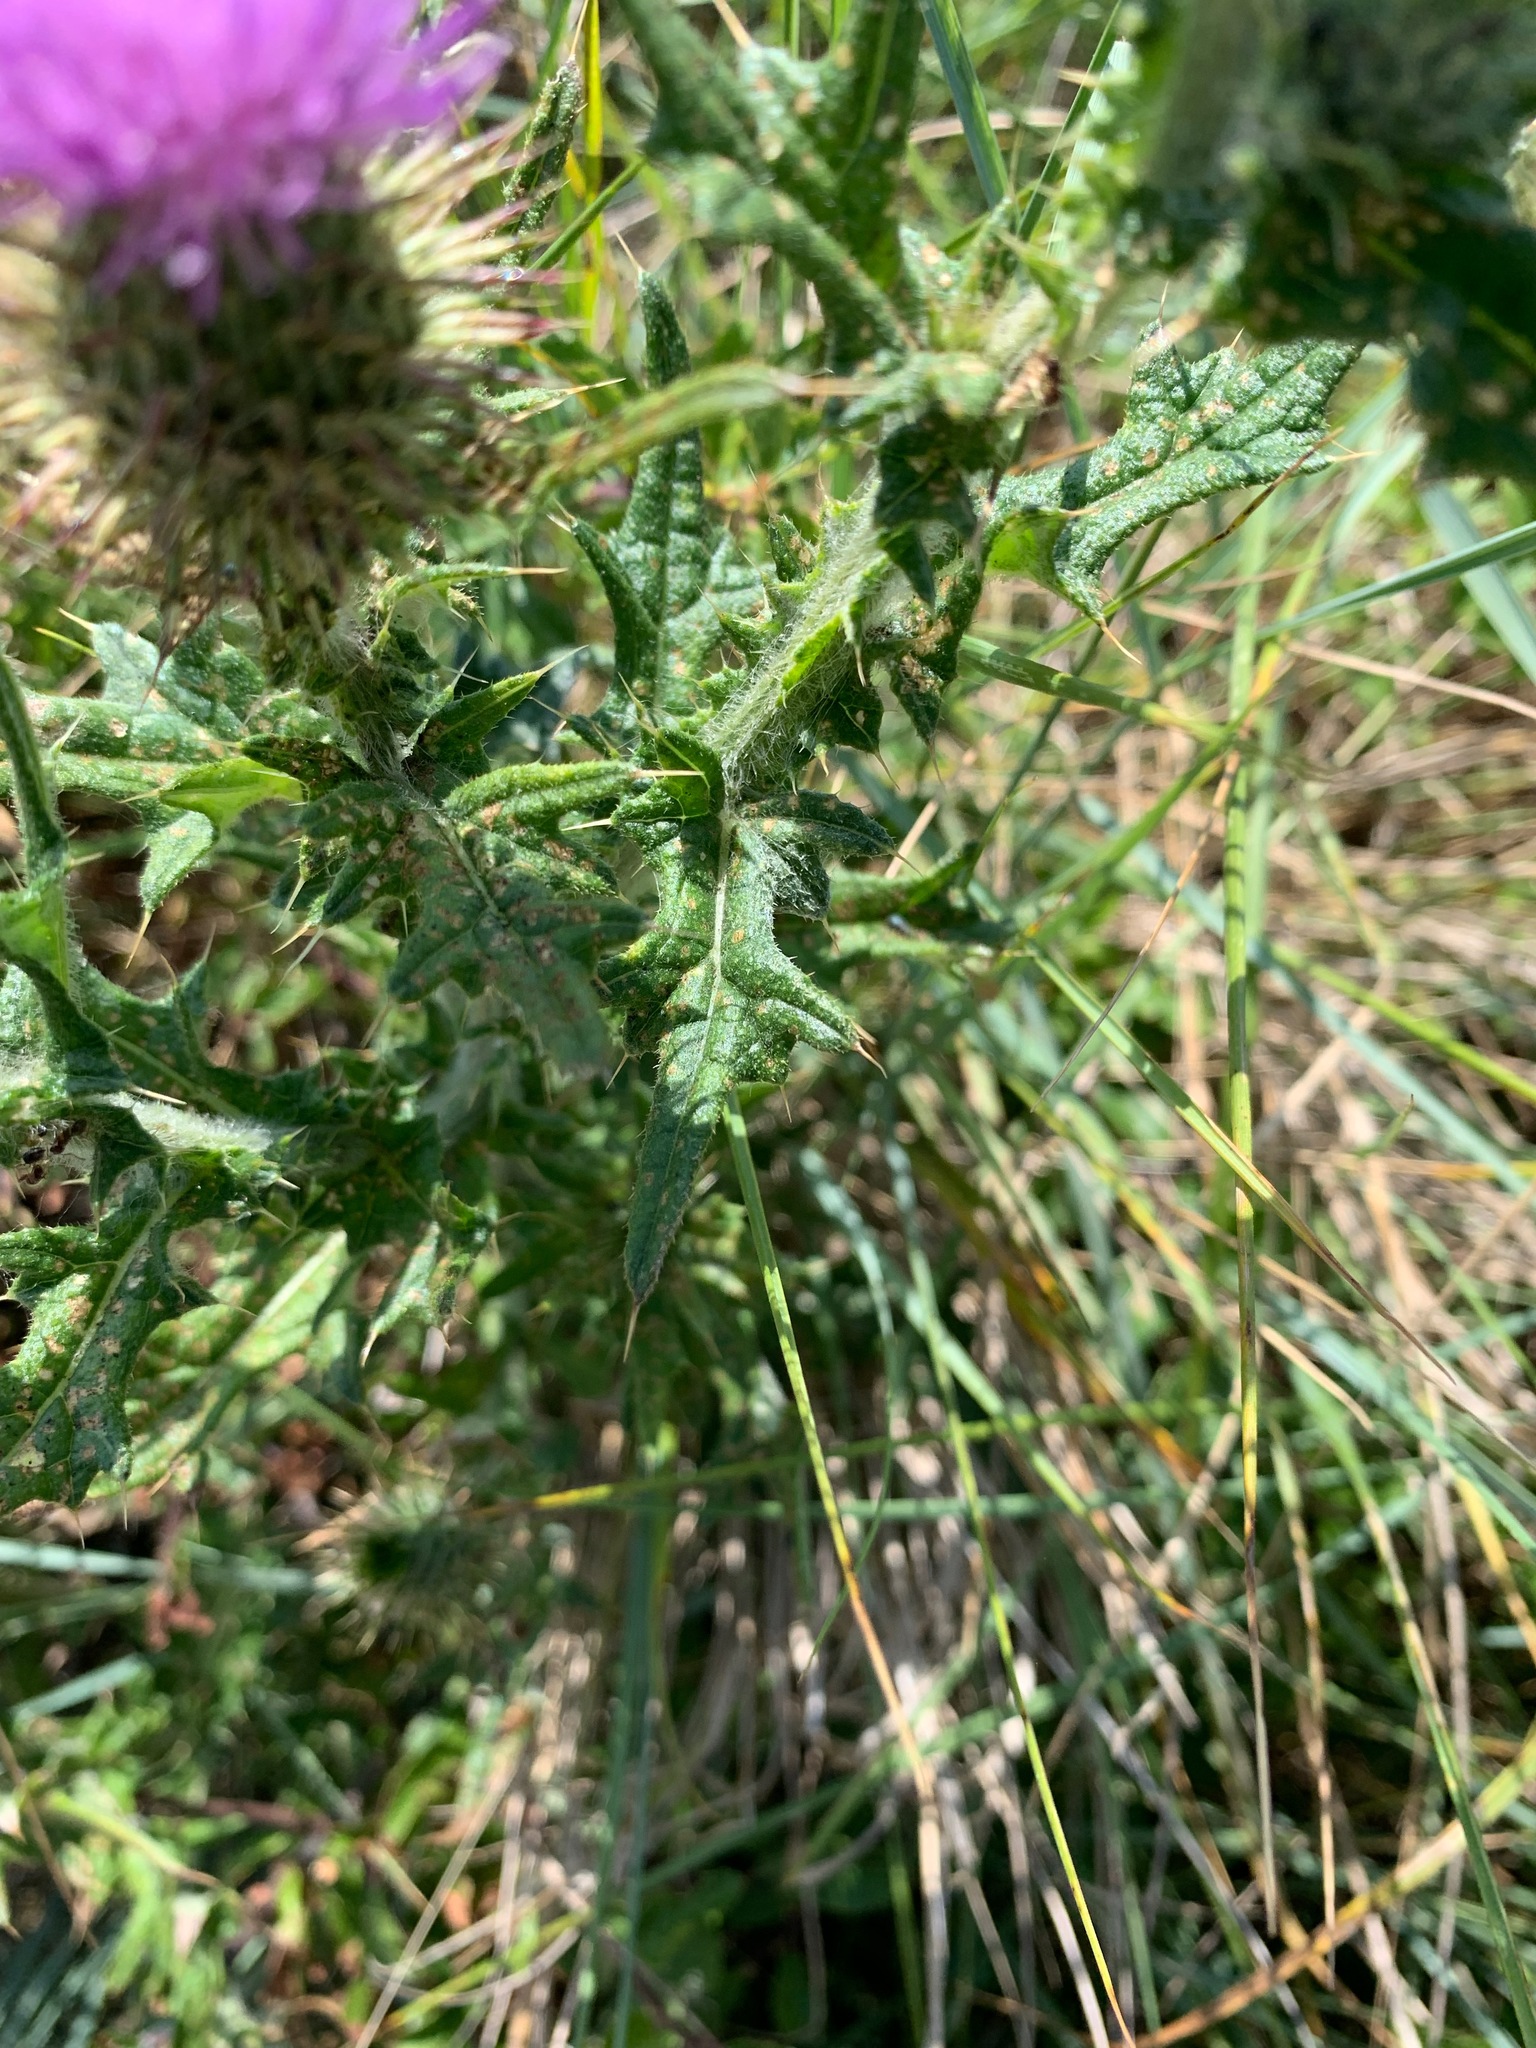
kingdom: Plantae
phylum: Tracheophyta
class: Magnoliopsida
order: Asterales
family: Asteraceae
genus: Cirsium
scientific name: Cirsium vulgare
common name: Bull thistle
